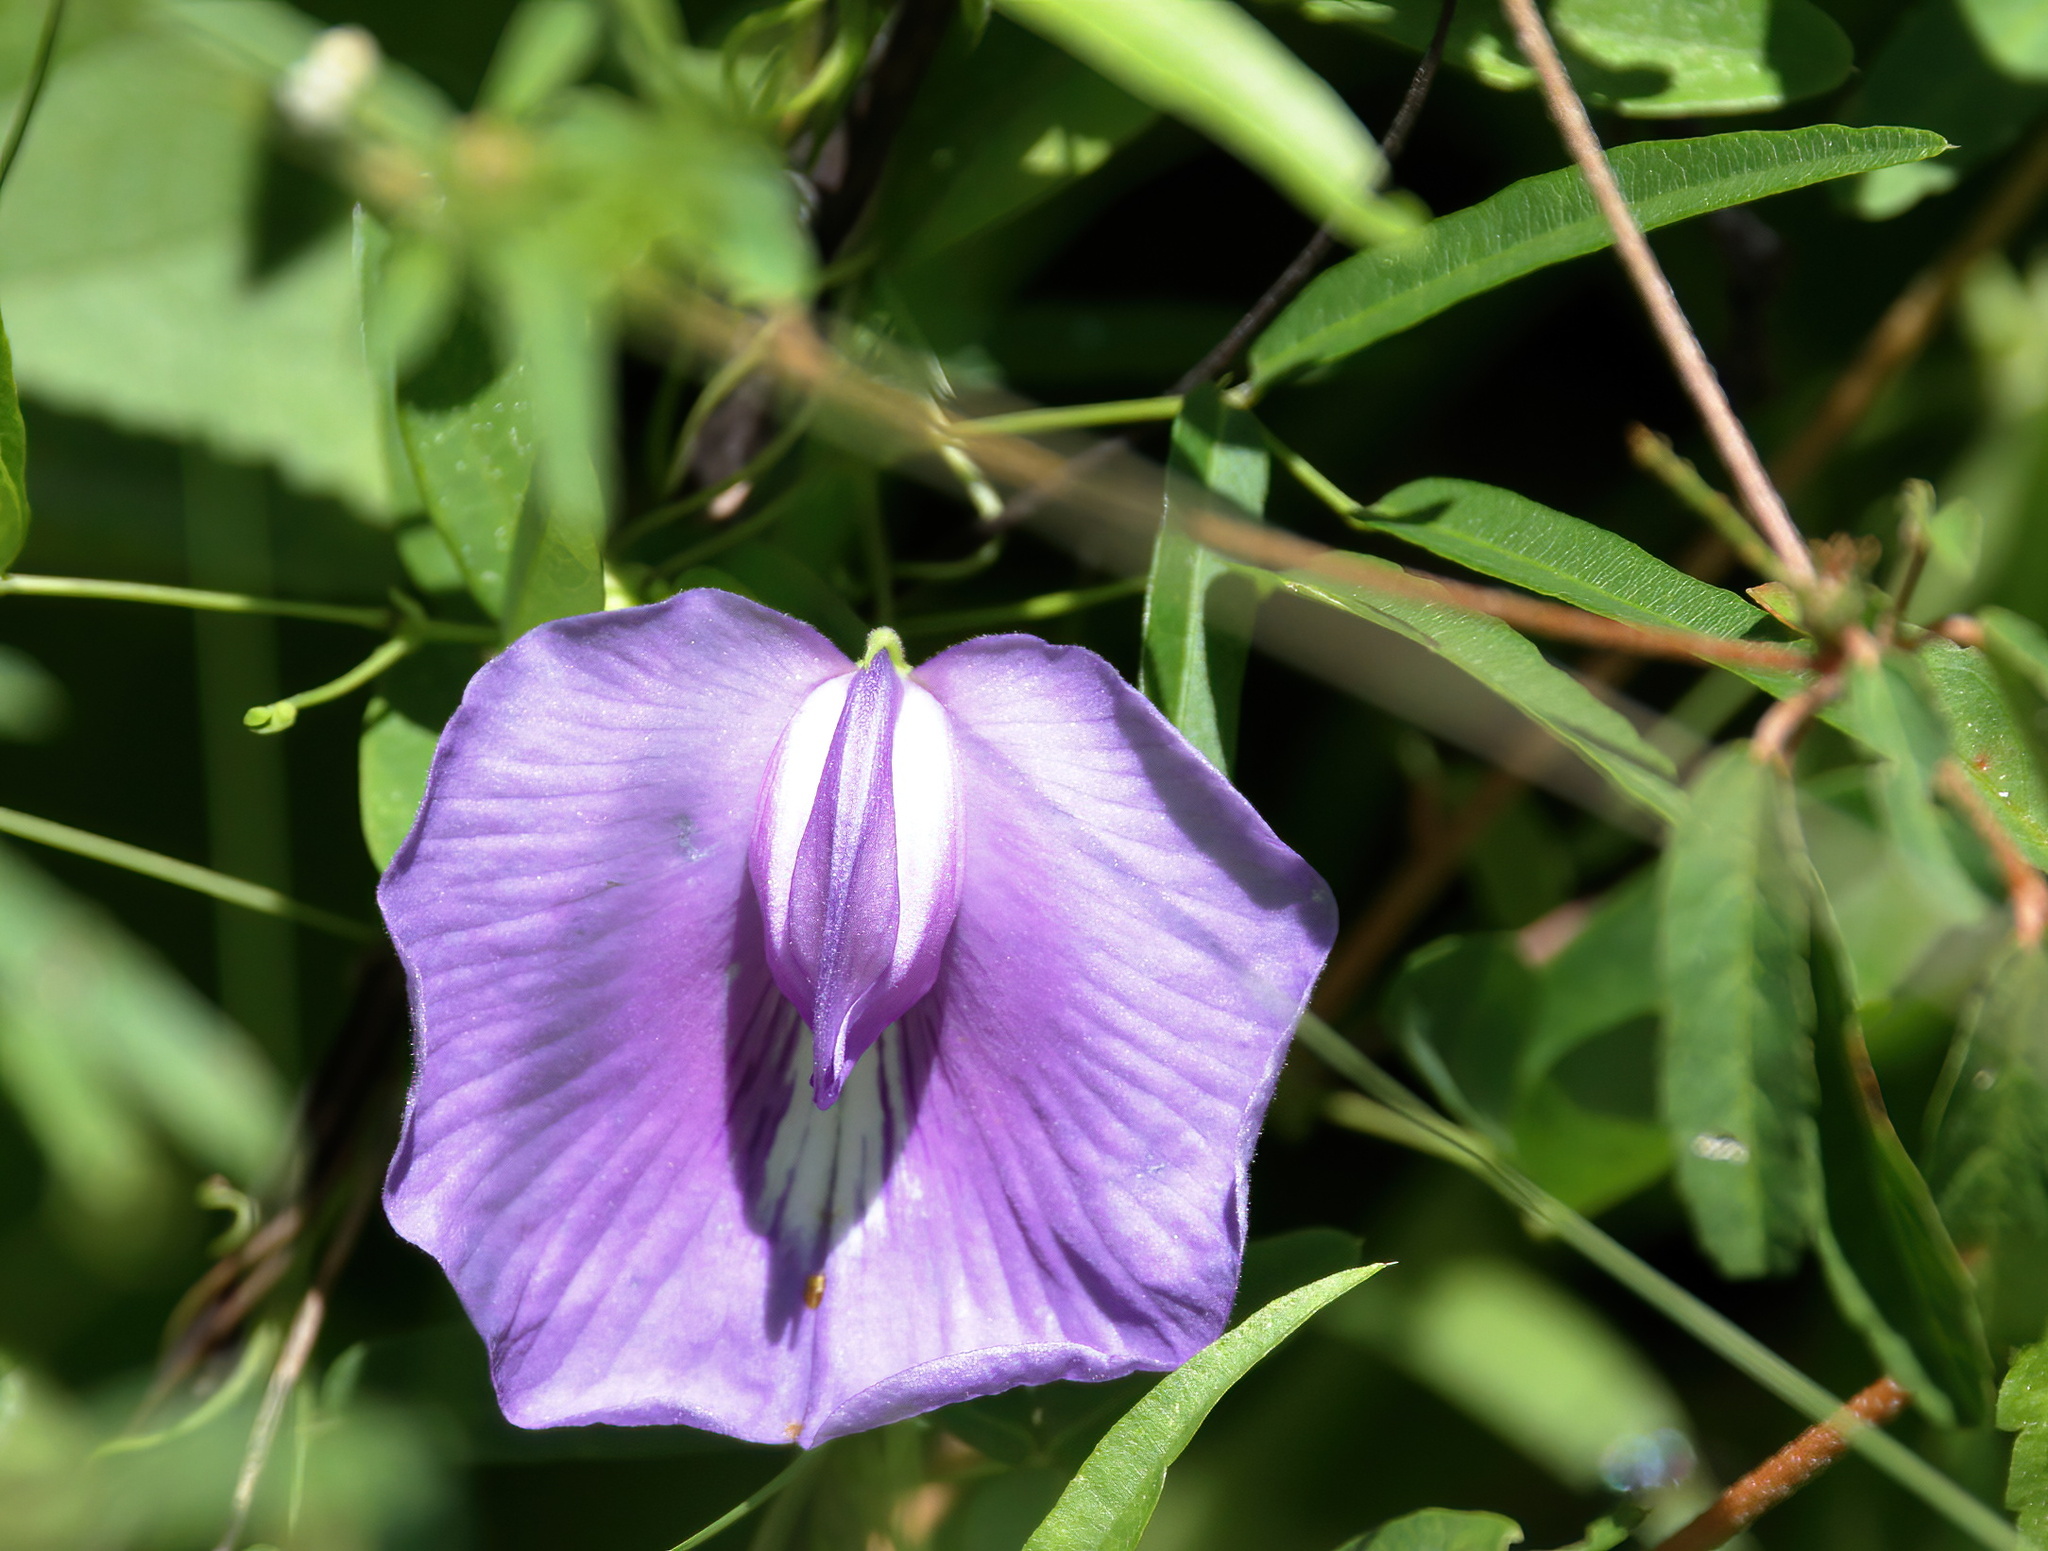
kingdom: Plantae
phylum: Tracheophyta
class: Magnoliopsida
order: Fabales
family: Fabaceae
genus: Centrosema
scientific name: Centrosema virginianum
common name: Butterfly-pea
